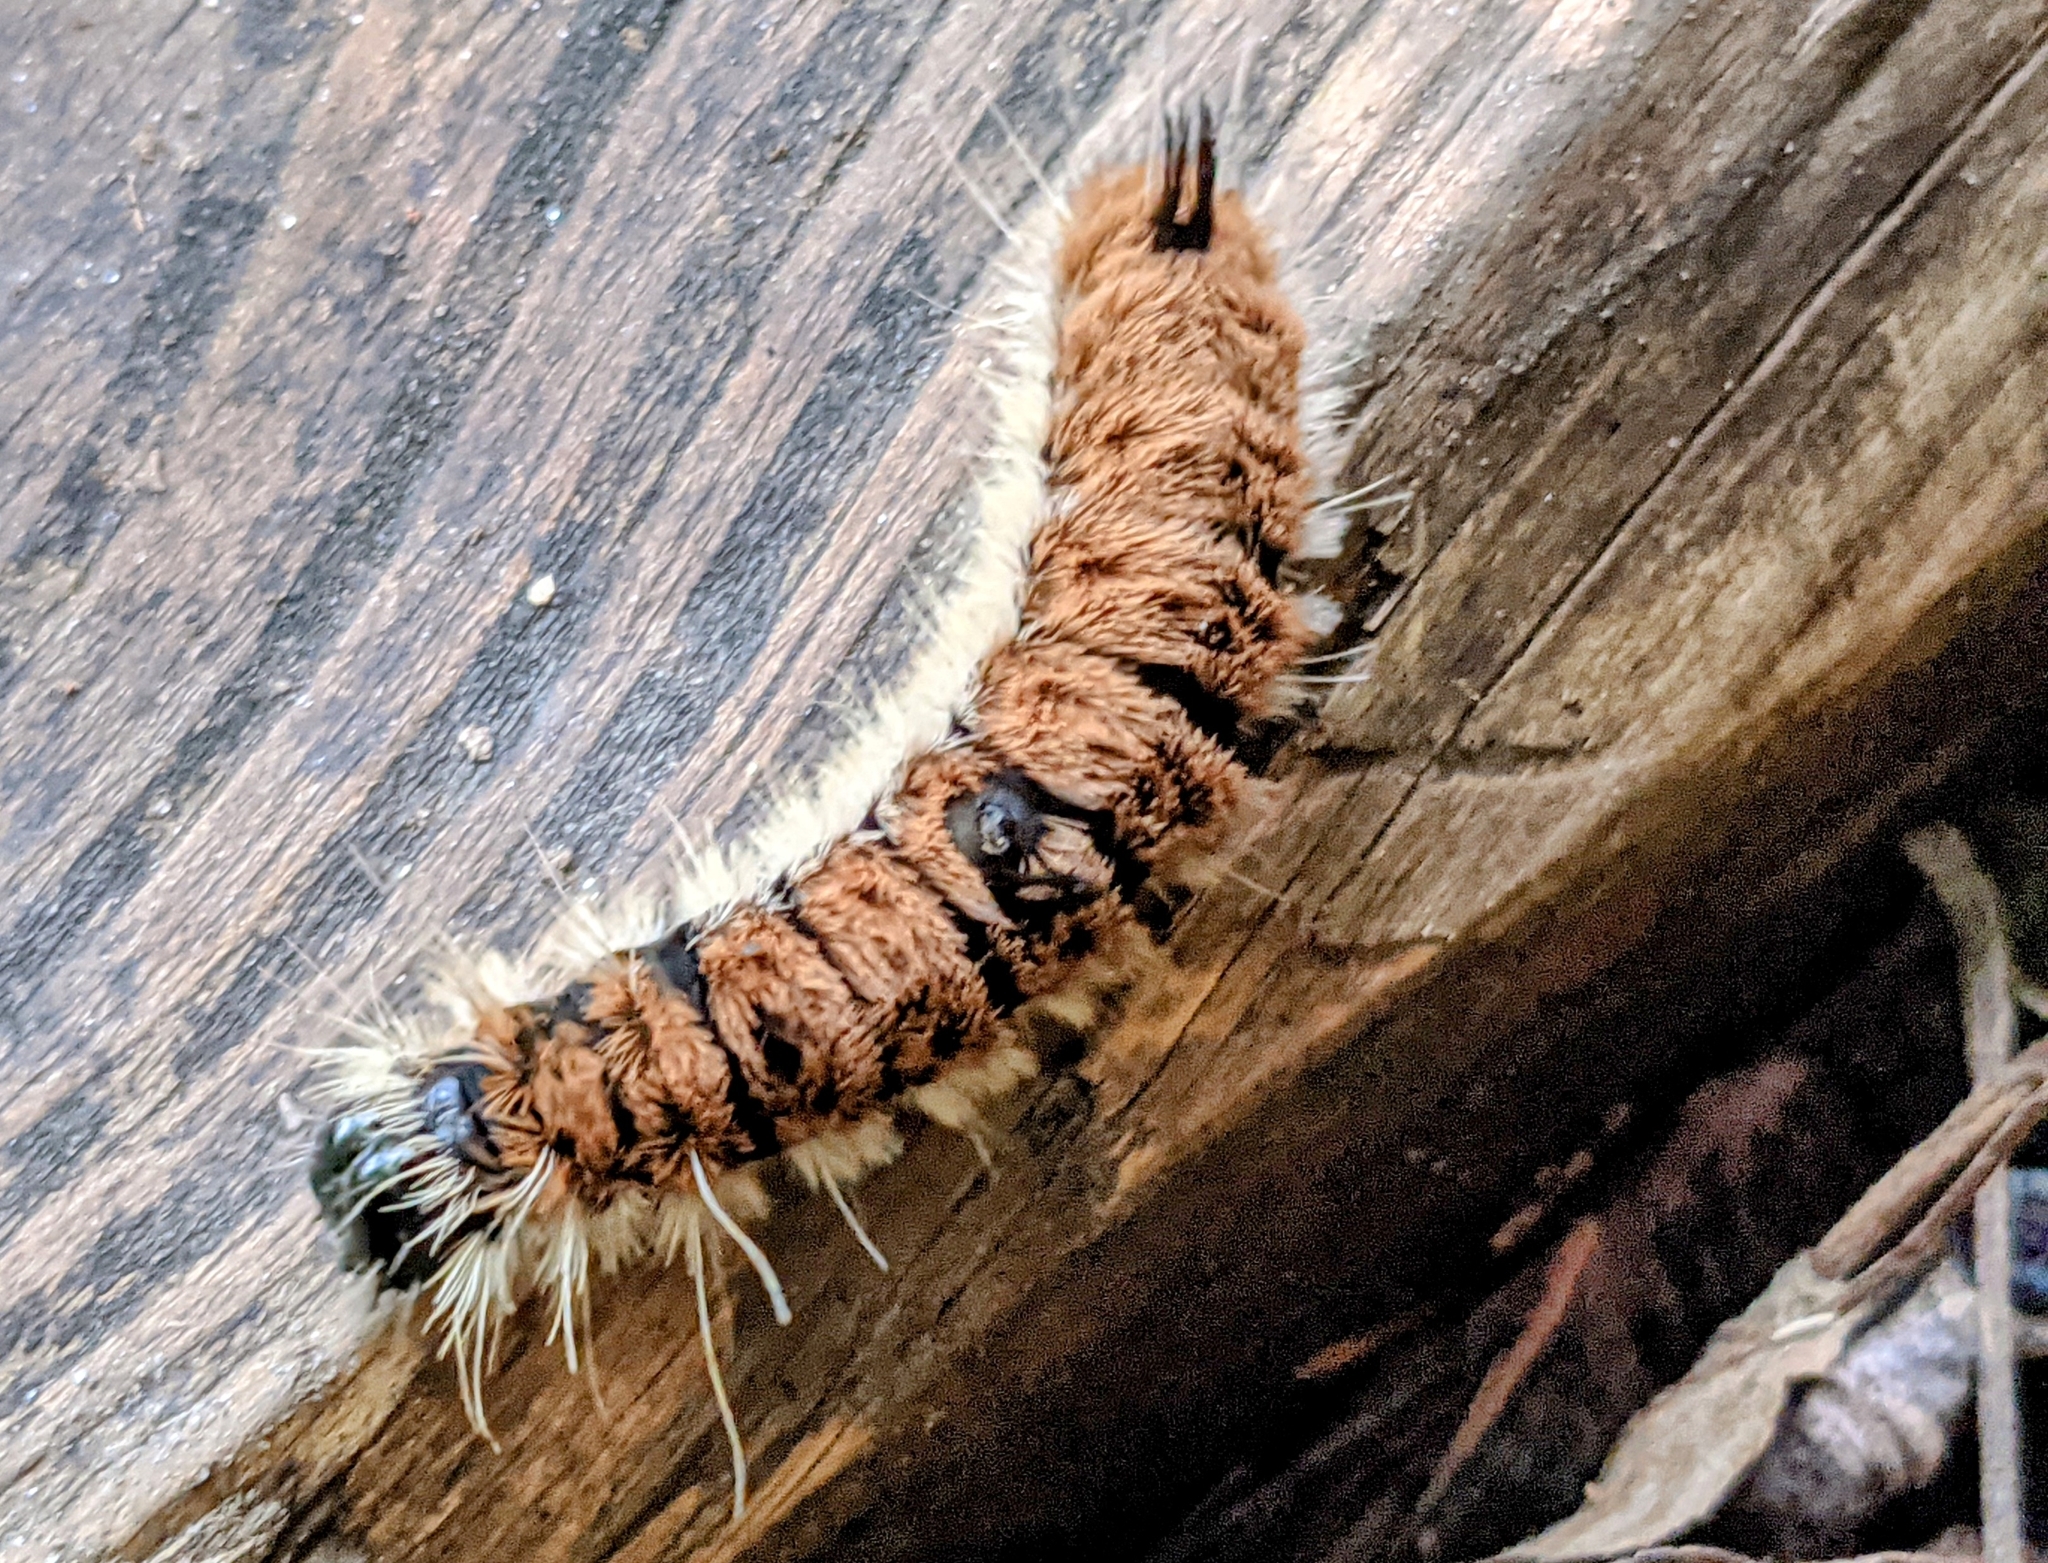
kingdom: Animalia
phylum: Arthropoda
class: Insecta
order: Lepidoptera
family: Noctuidae
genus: Acronicta
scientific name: Acronicta insita
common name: Large gray dagger
